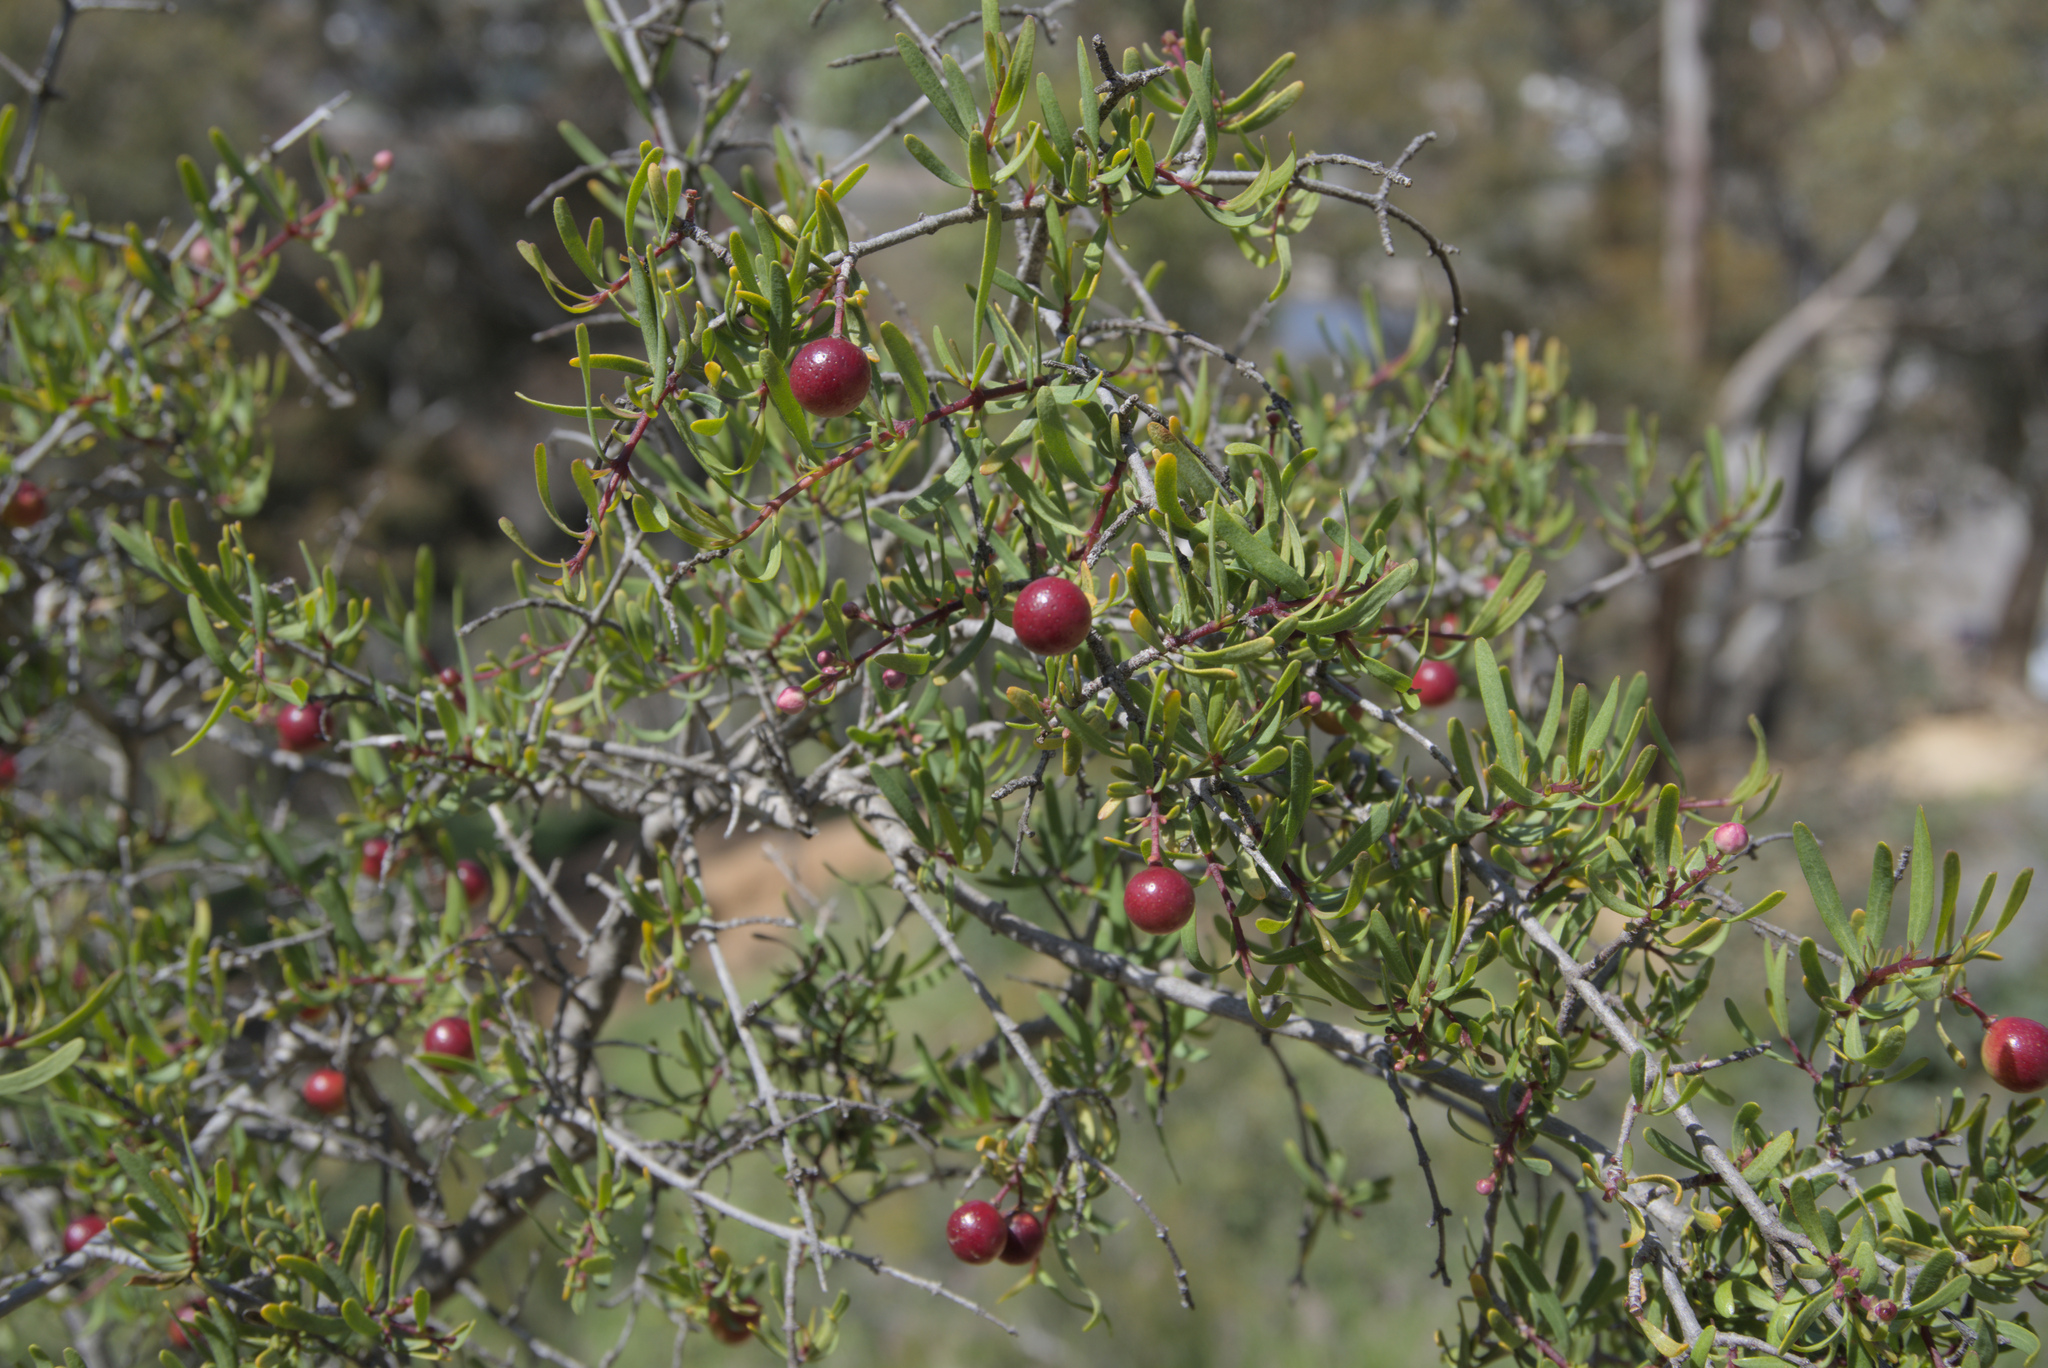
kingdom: Plantae
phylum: Tracheophyta
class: Magnoliopsida
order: Sapindales
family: Rutaceae
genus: Cneoridium
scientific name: Cneoridium dumosum
